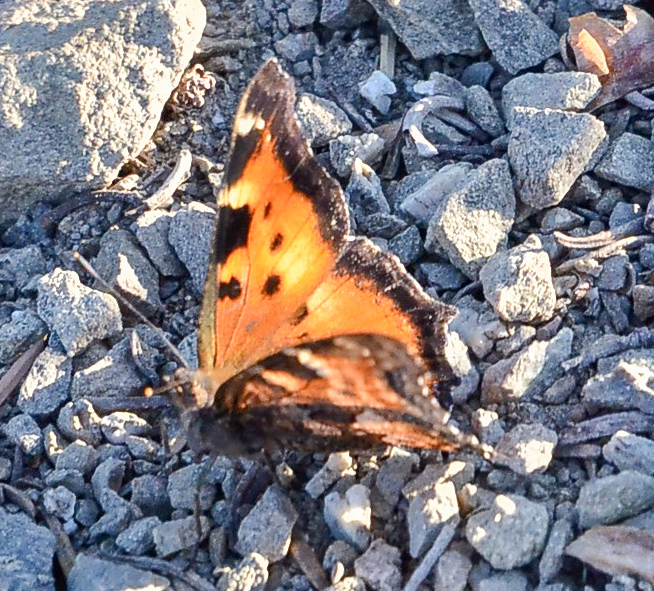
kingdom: Animalia
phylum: Arthropoda
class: Insecta
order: Lepidoptera
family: Nymphalidae
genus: Nymphalis
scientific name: Nymphalis californica
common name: California tortoiseshell
